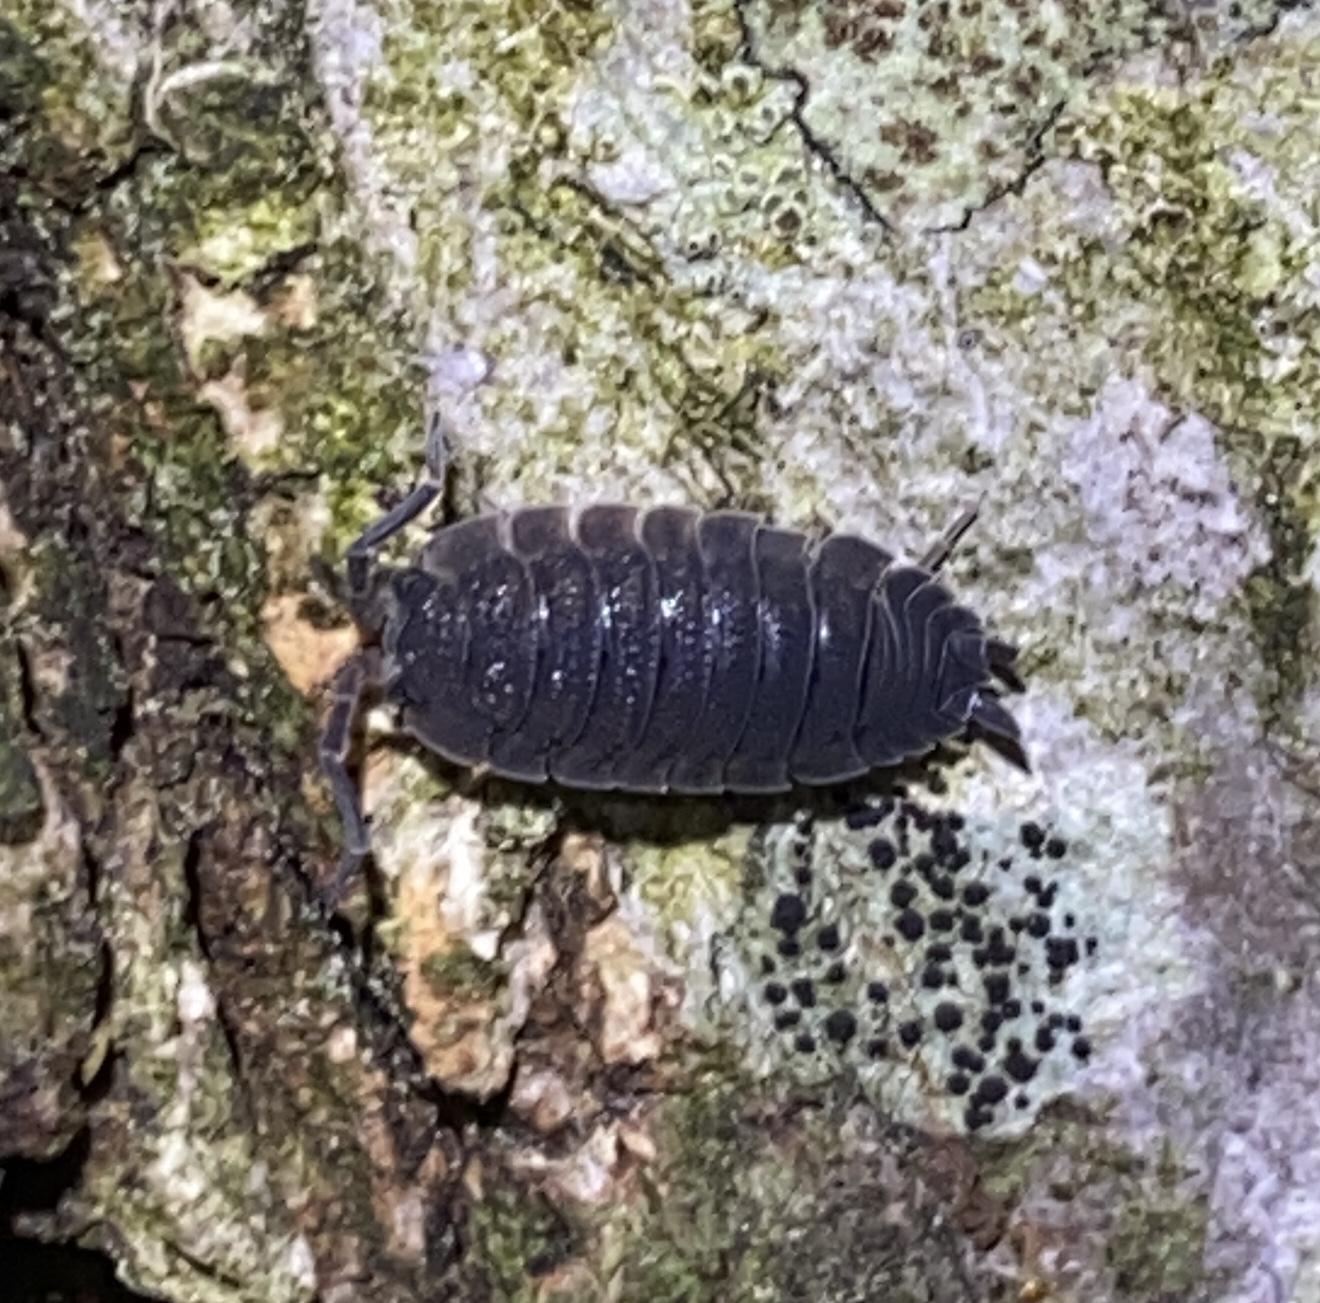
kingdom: Animalia
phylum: Arthropoda
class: Malacostraca
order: Isopoda
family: Porcellionidae
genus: Porcellio
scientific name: Porcellio scaber
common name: Common rough woodlouse
